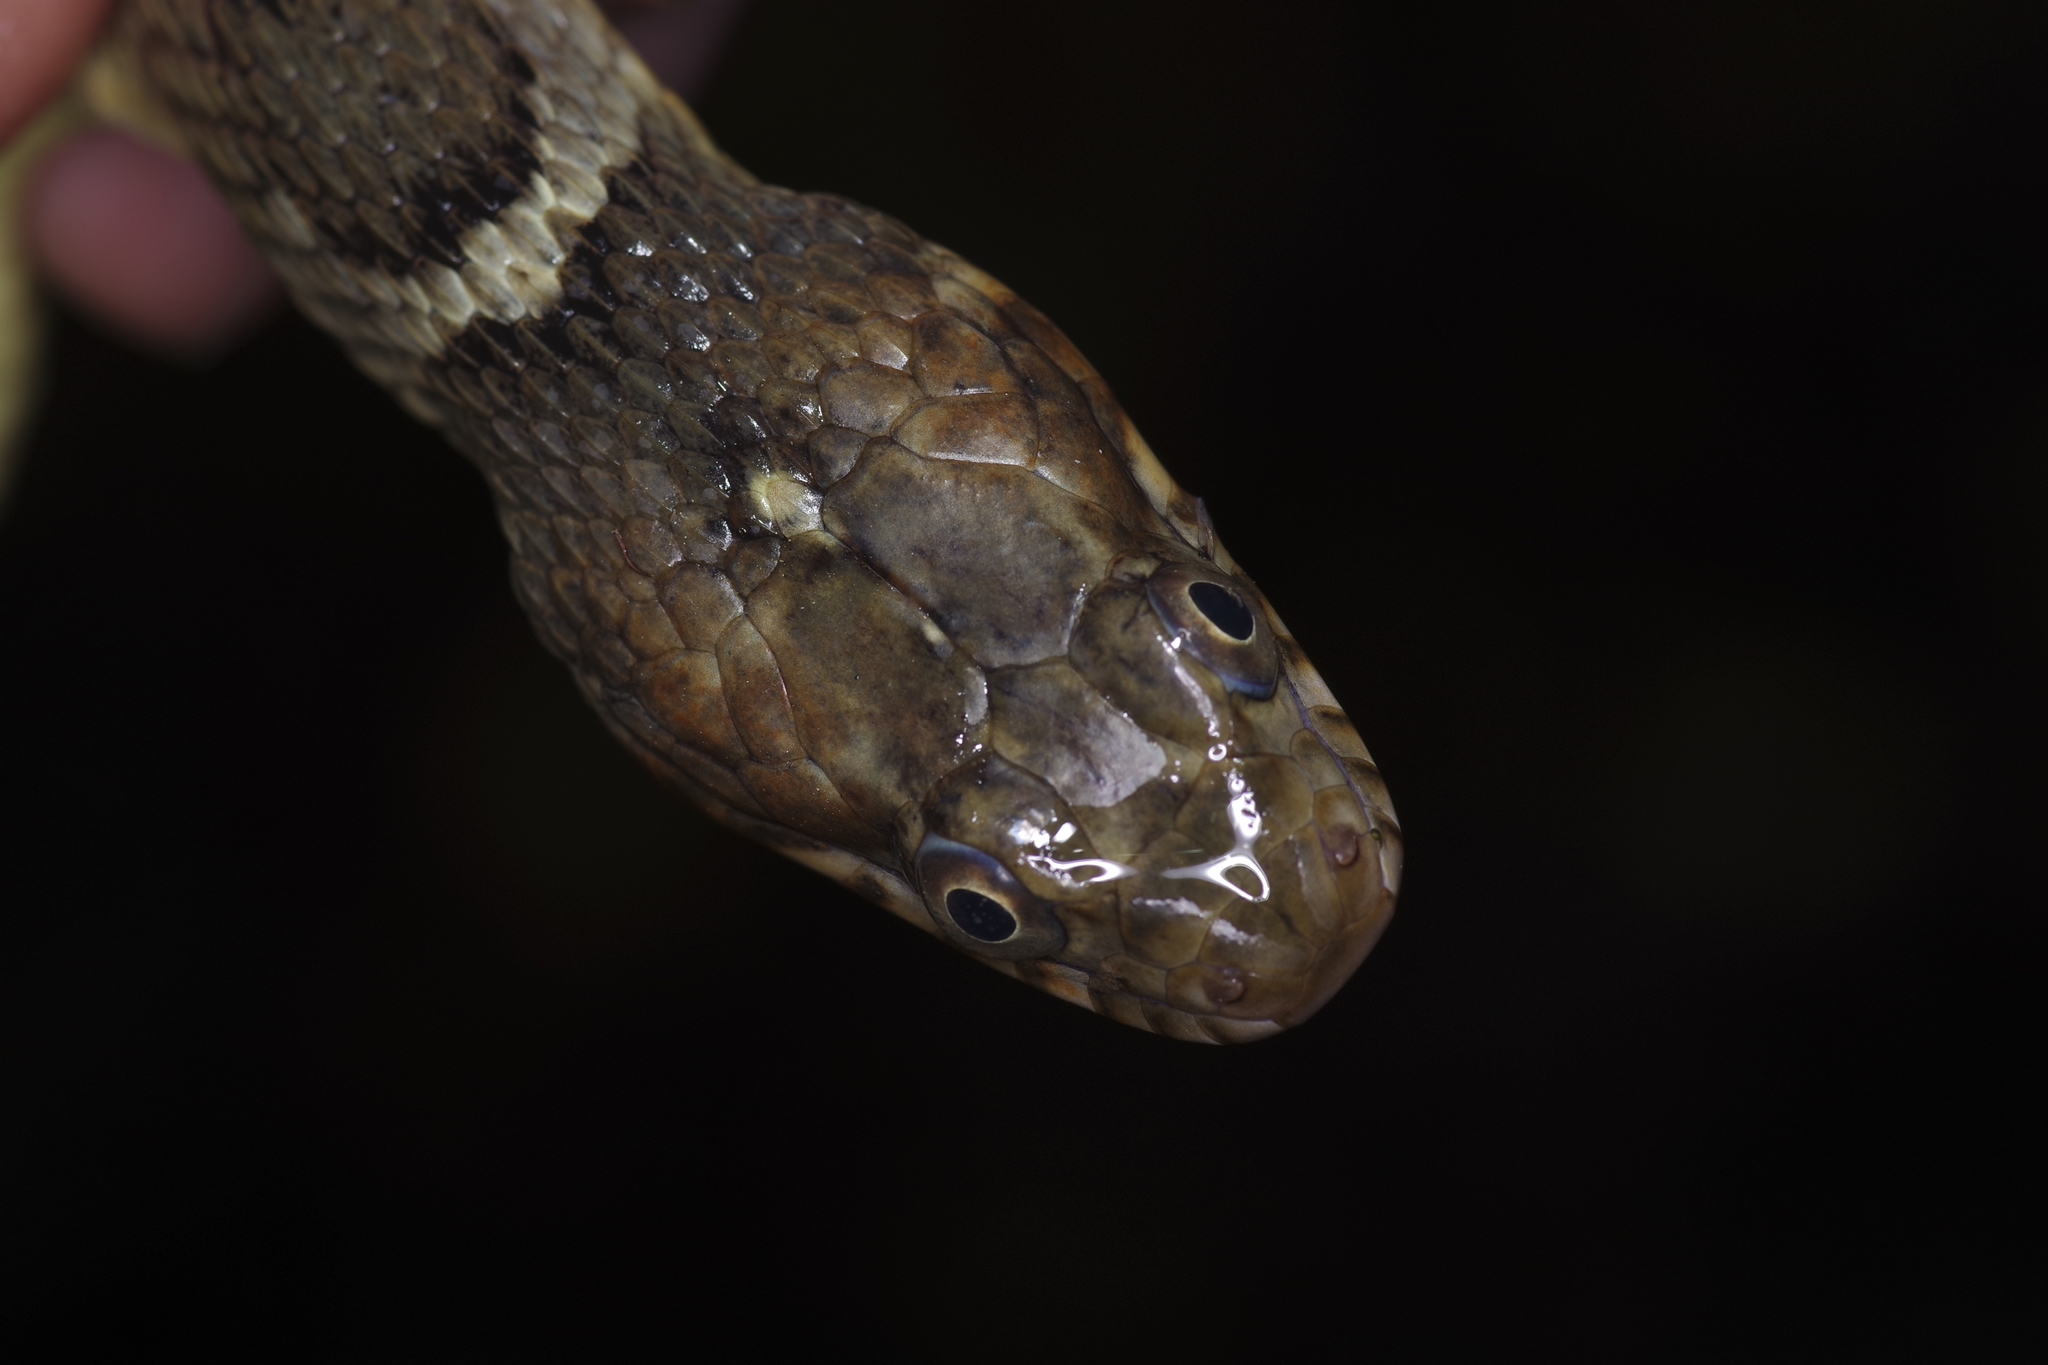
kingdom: Animalia
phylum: Chordata
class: Squamata
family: Colubridae
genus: Nerodia
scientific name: Nerodia erythrogaster
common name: Plainbelly water snake
